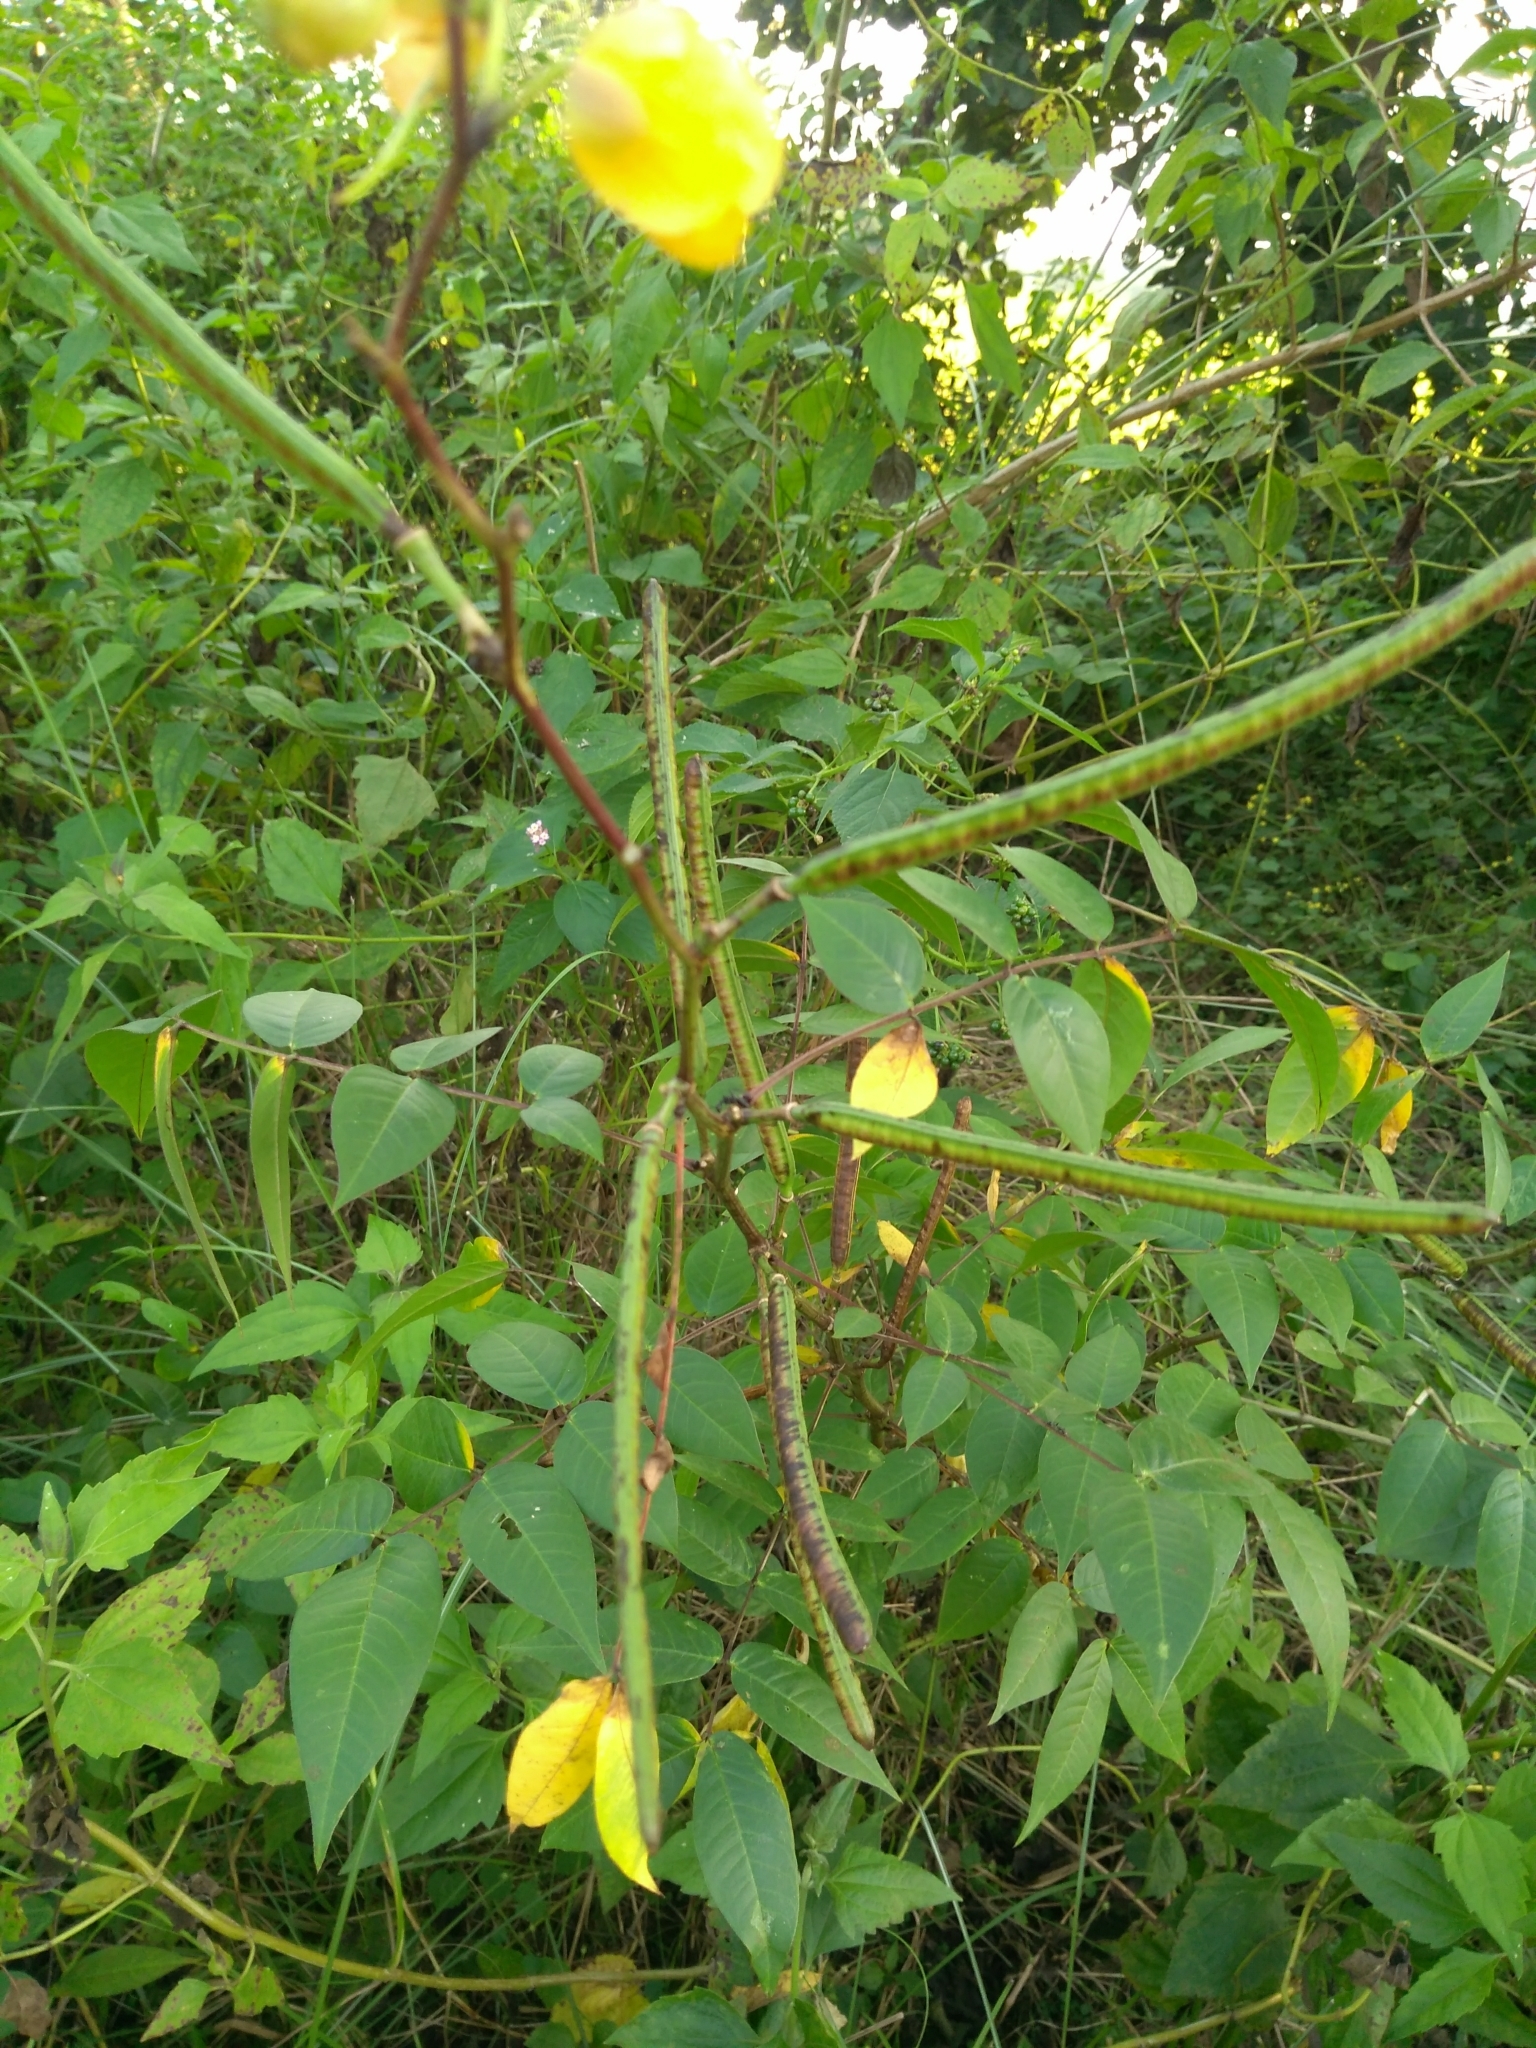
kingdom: Plantae
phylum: Tracheophyta
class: Magnoliopsida
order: Fabales
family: Fabaceae
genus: Senna
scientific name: Senna occidentalis
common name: Septicweed
